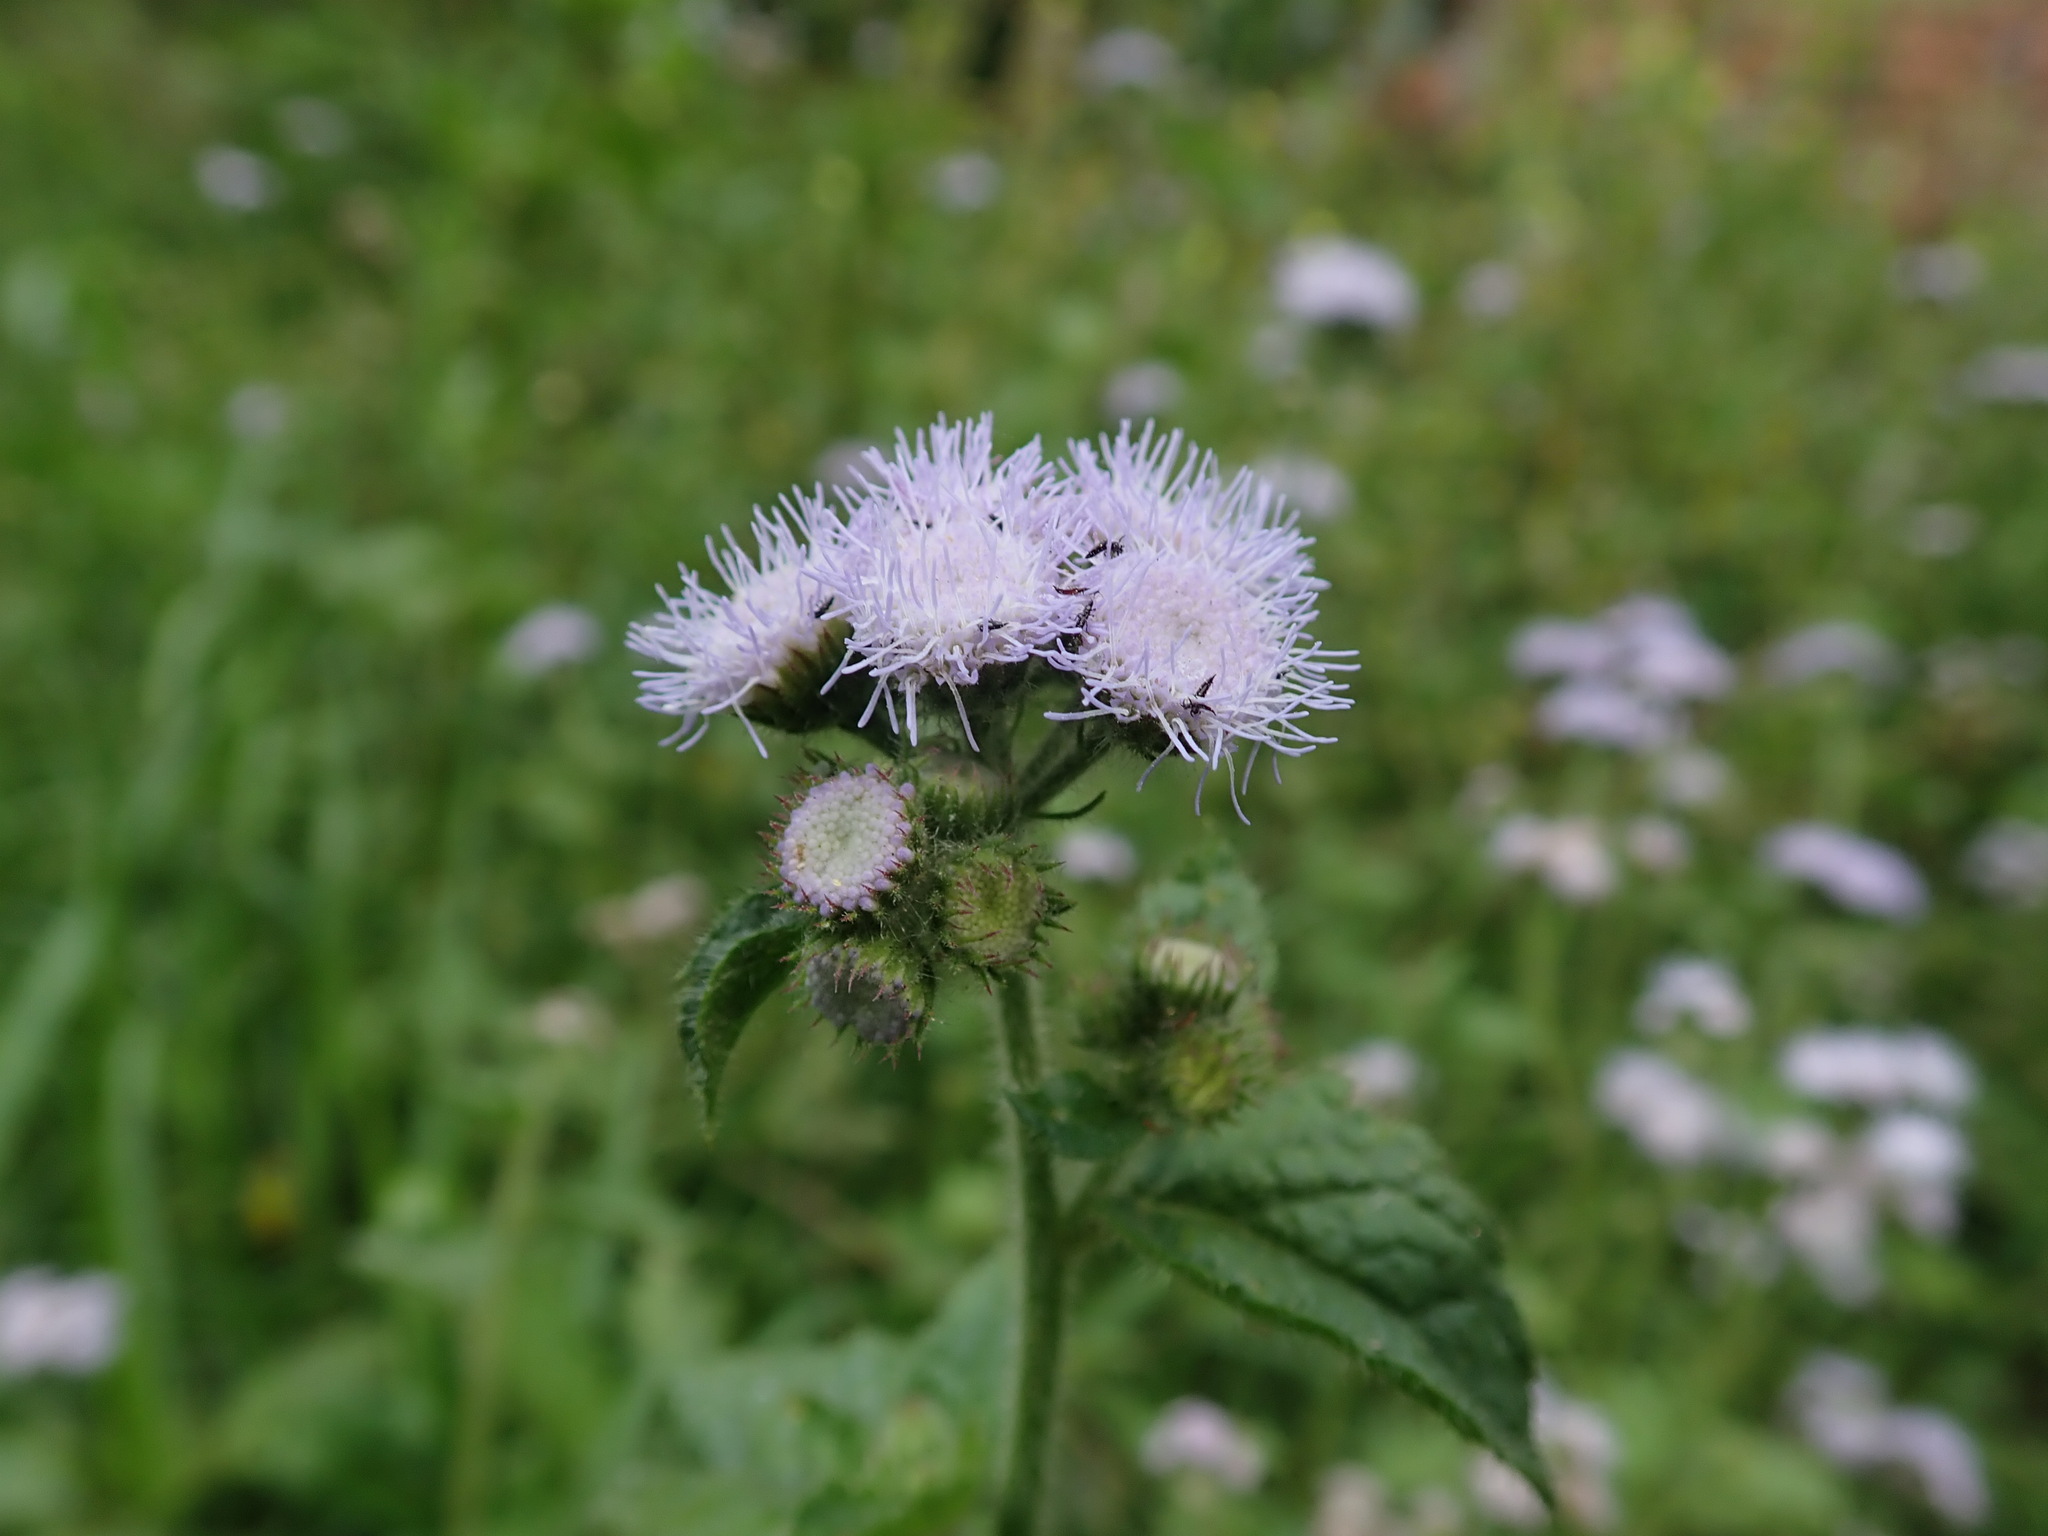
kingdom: Plantae
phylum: Tracheophyta
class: Magnoliopsida
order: Asterales
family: Asteraceae
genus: Ageratum
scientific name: Ageratum houstonianum
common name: Bluemink
